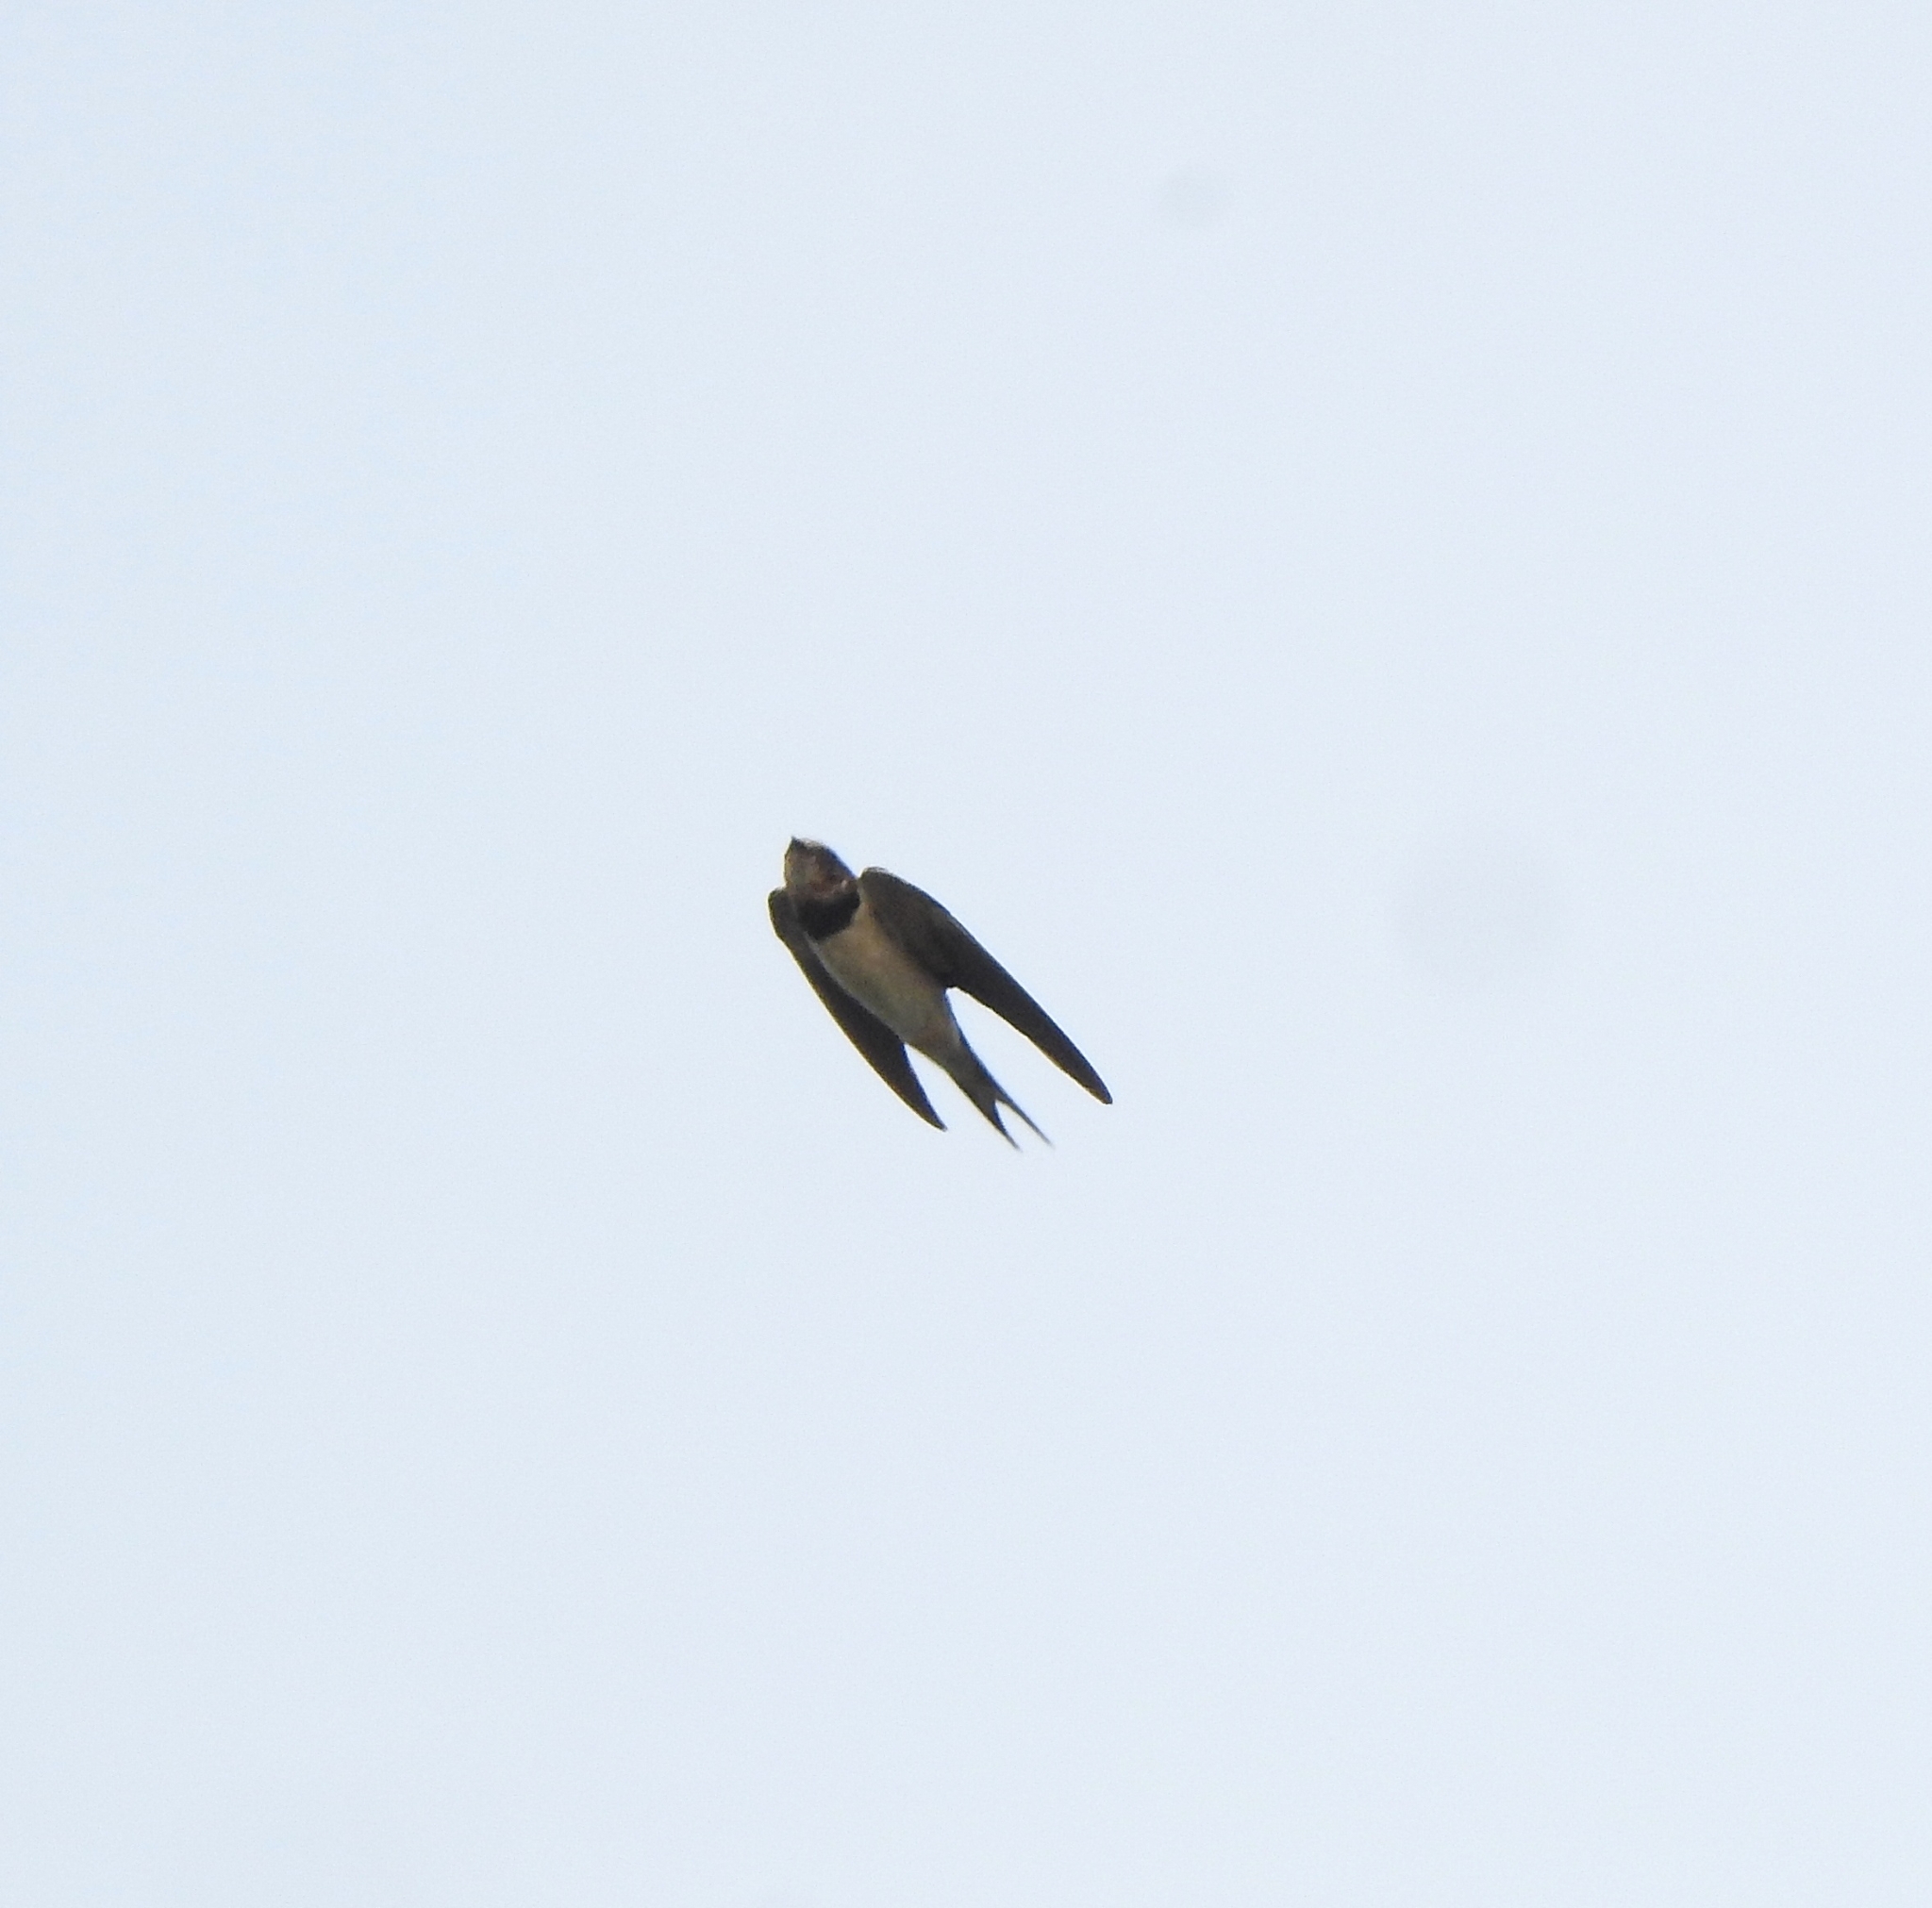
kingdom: Animalia
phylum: Chordata
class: Aves
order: Passeriformes
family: Hirundinidae
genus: Hirundo
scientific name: Hirundo rustica
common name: Barn swallow
